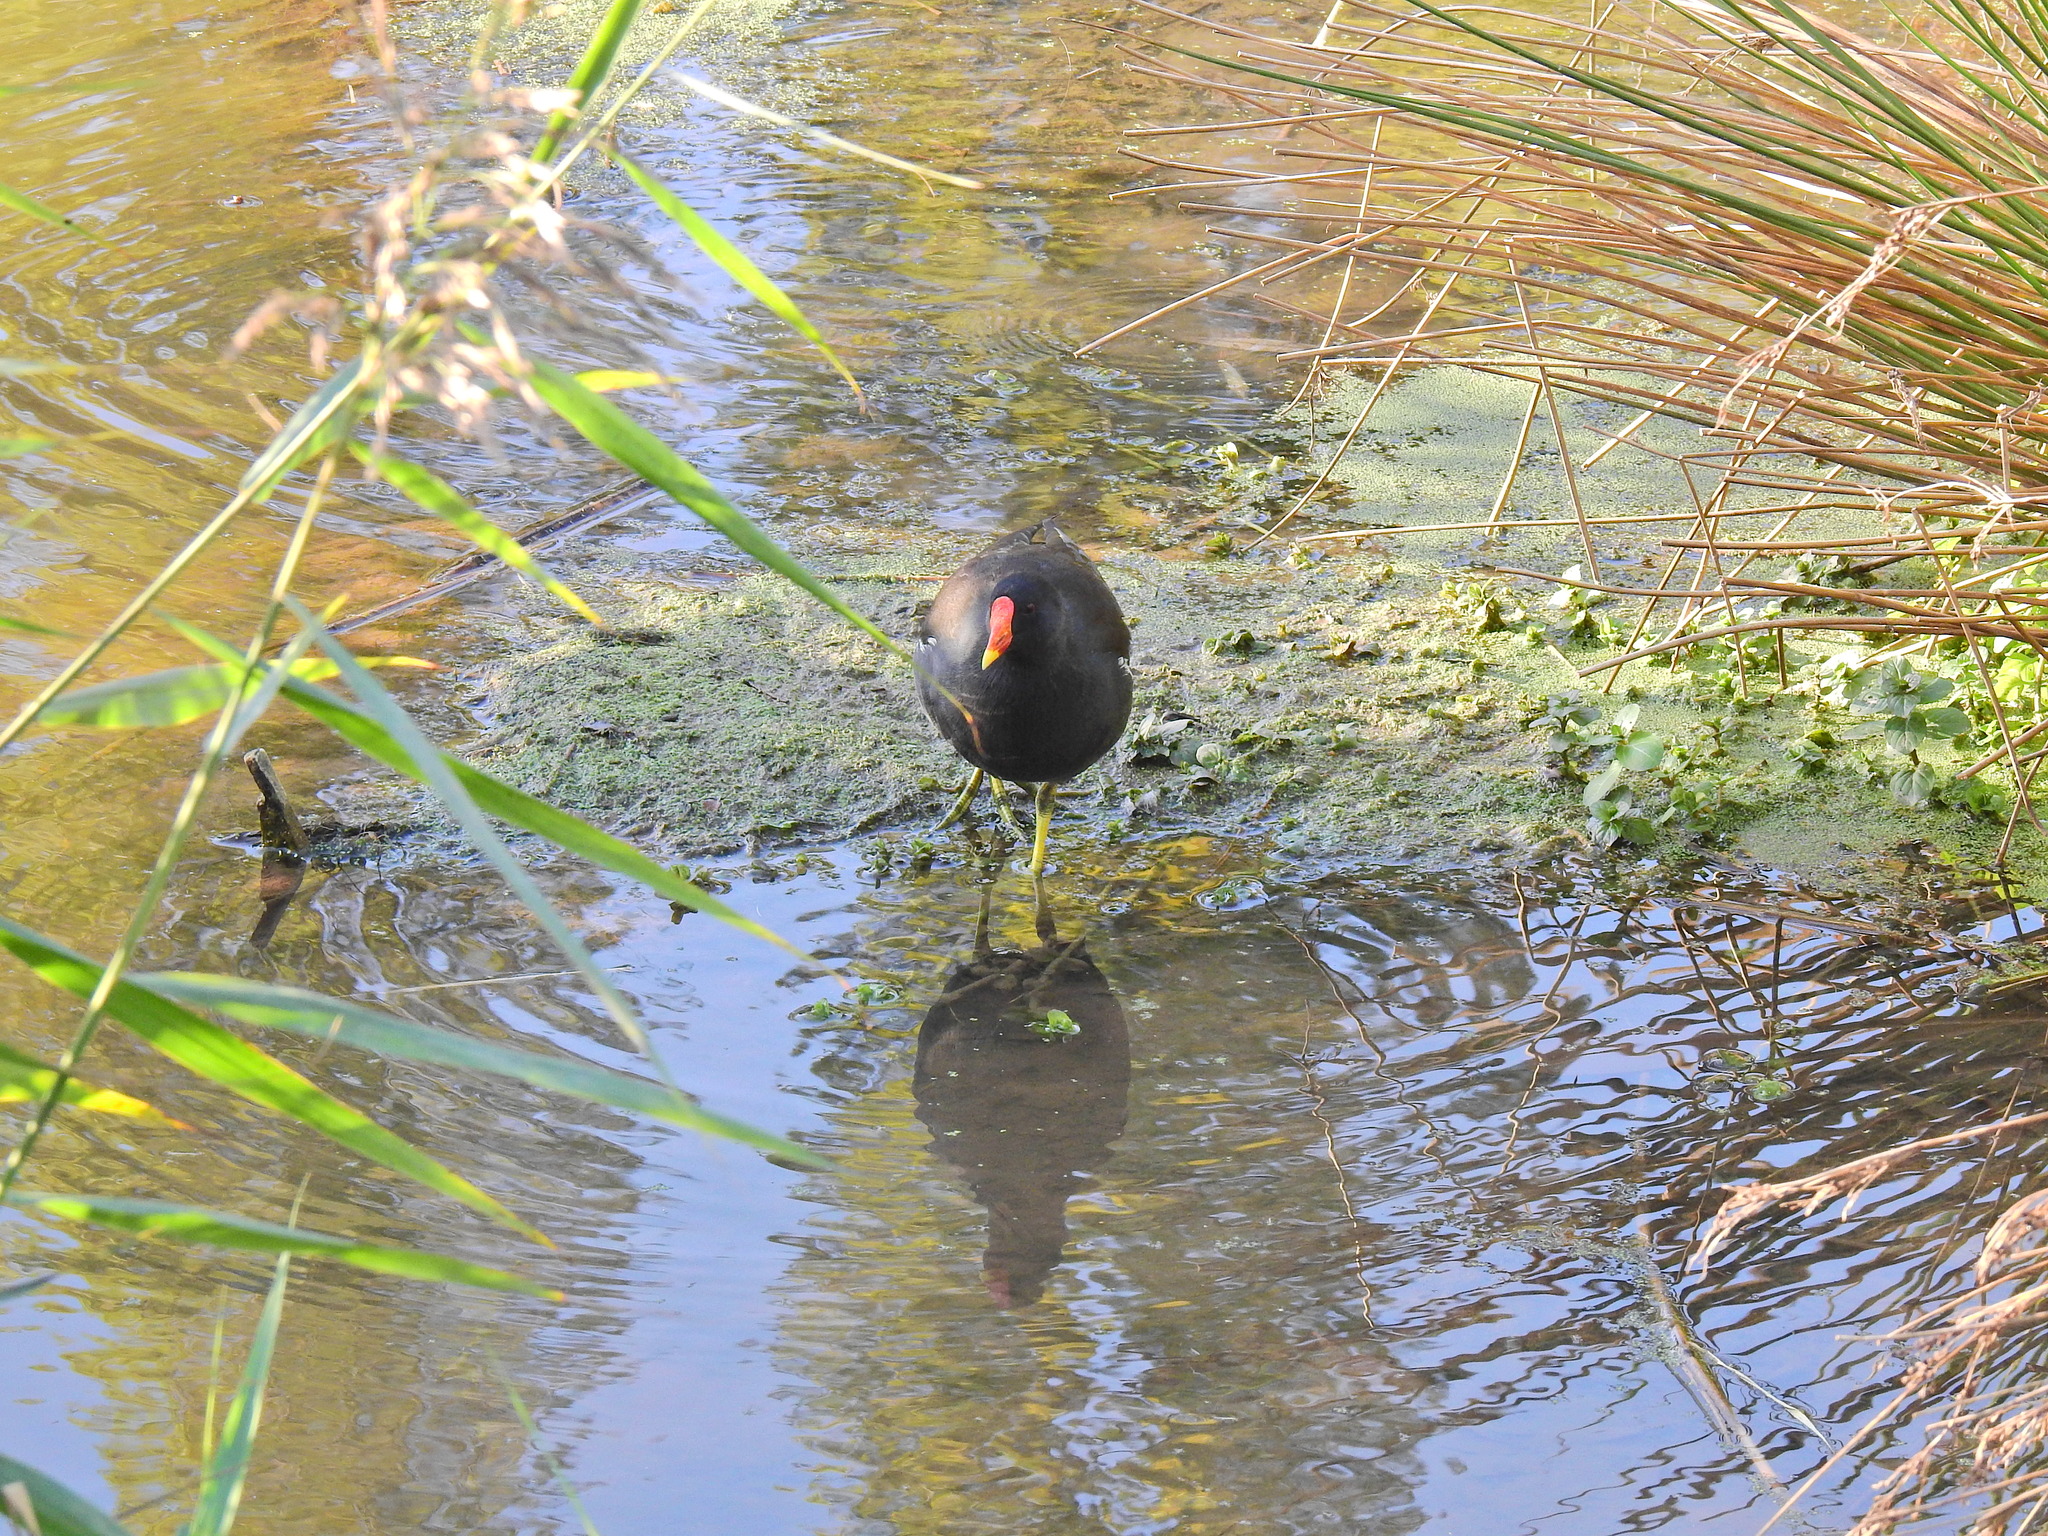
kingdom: Animalia
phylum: Chordata
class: Aves
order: Gruiformes
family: Rallidae
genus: Gallinula
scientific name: Gallinula chloropus
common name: Common moorhen
